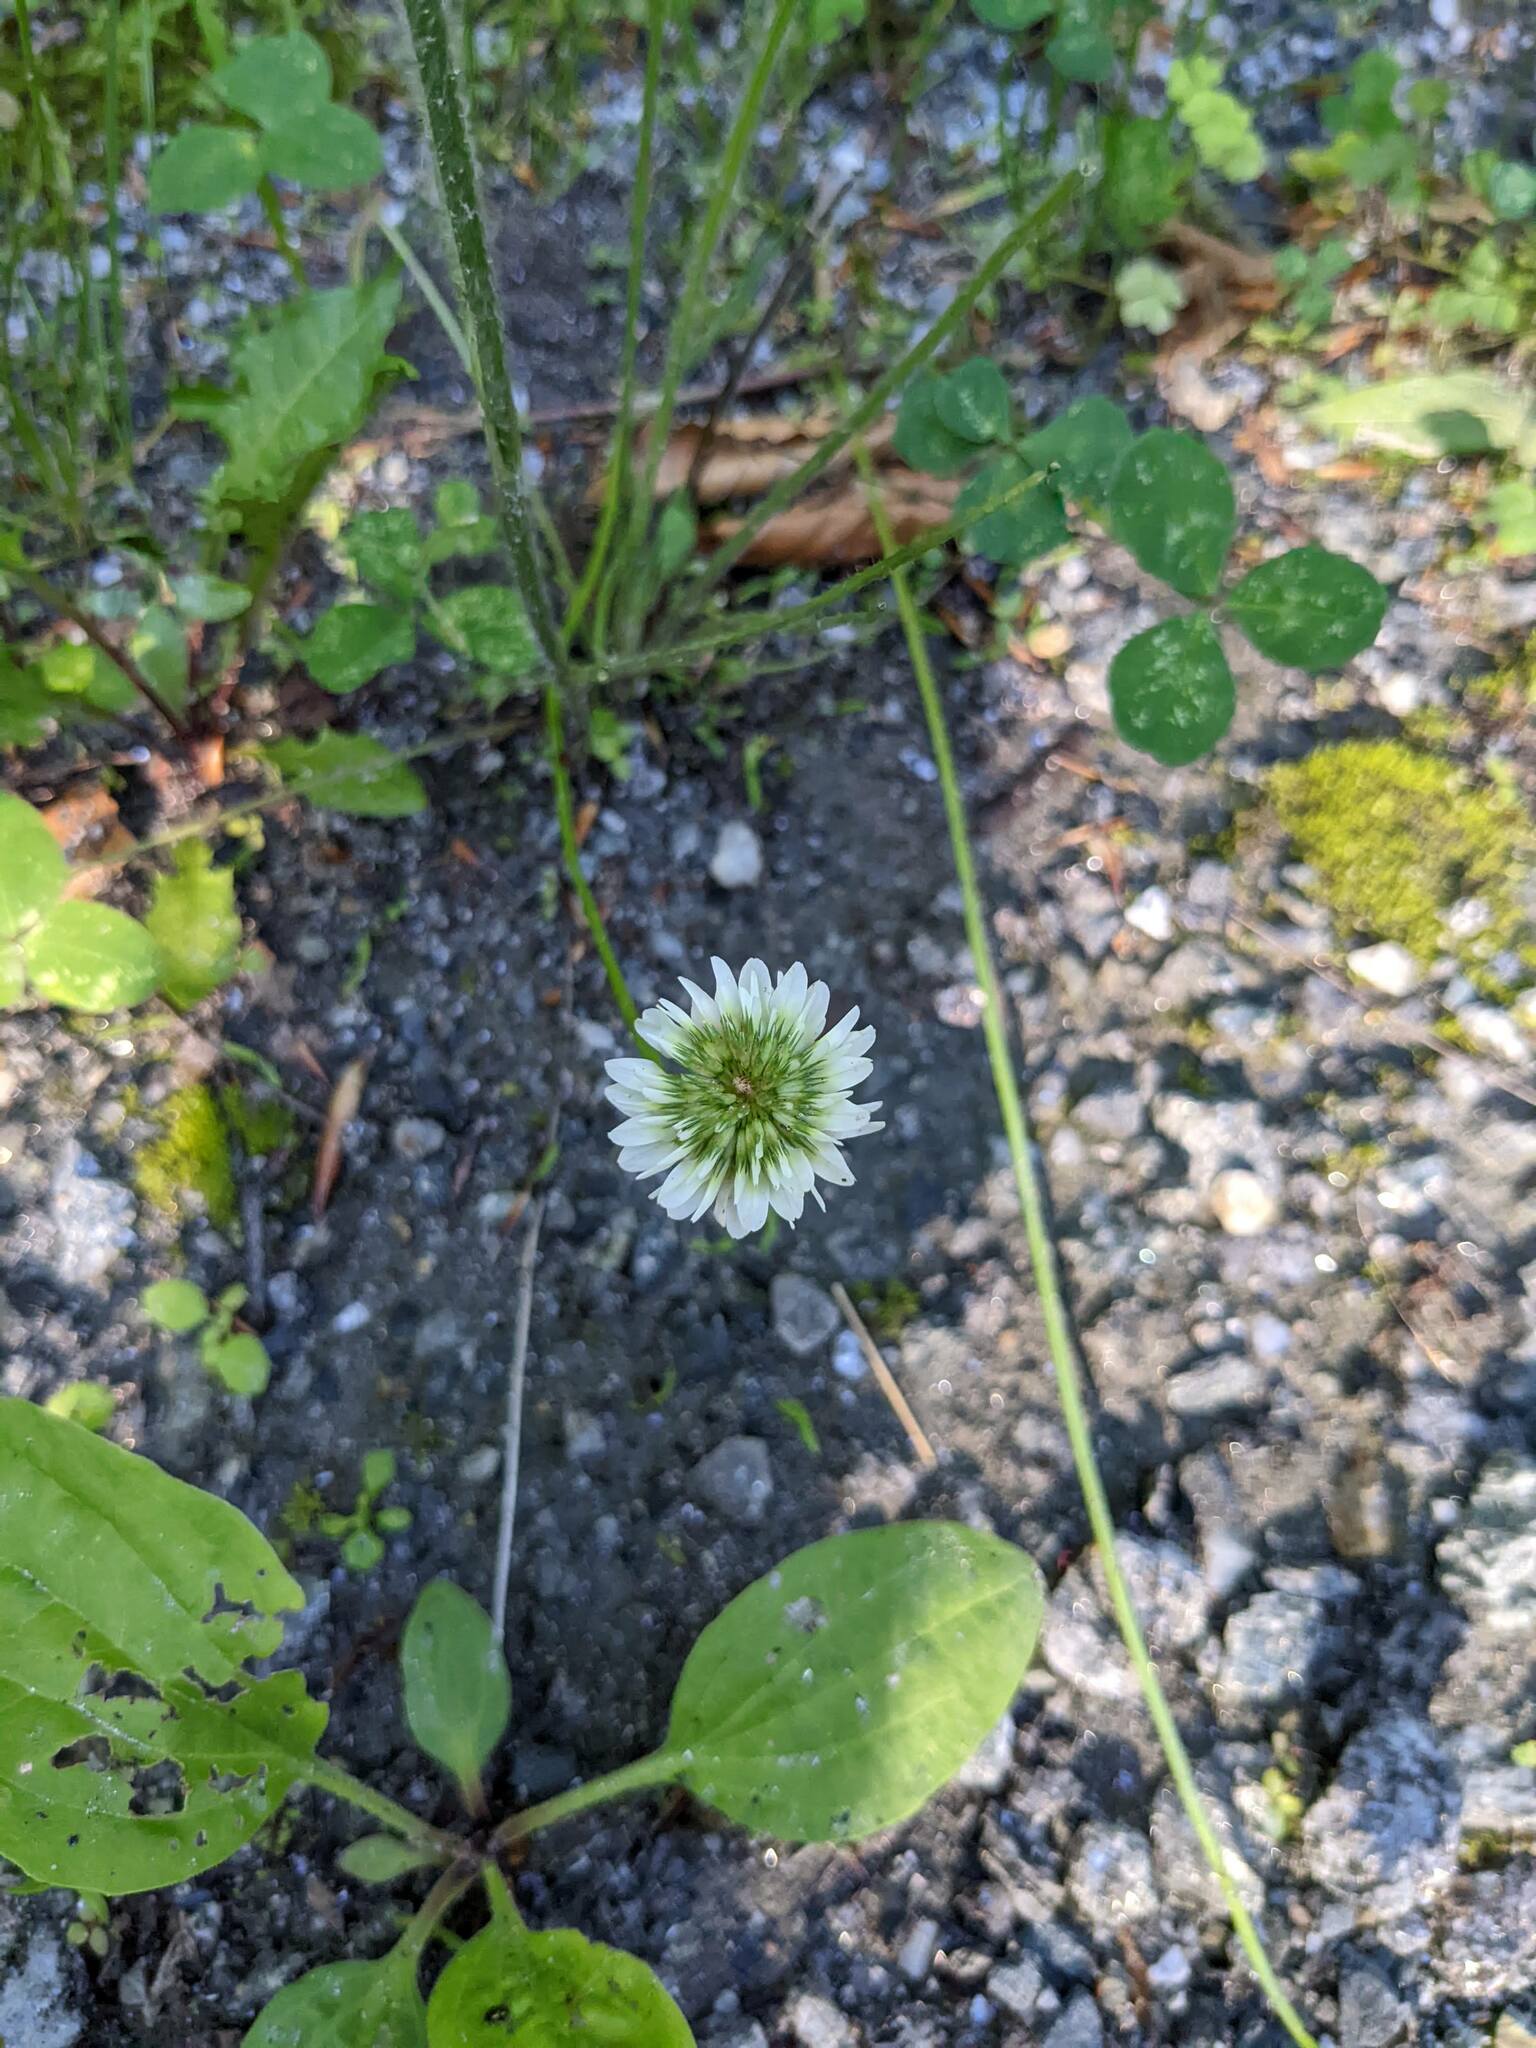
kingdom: Plantae
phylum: Tracheophyta
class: Magnoliopsida
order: Fabales
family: Fabaceae
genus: Trifolium
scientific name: Trifolium repens
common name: White clover
